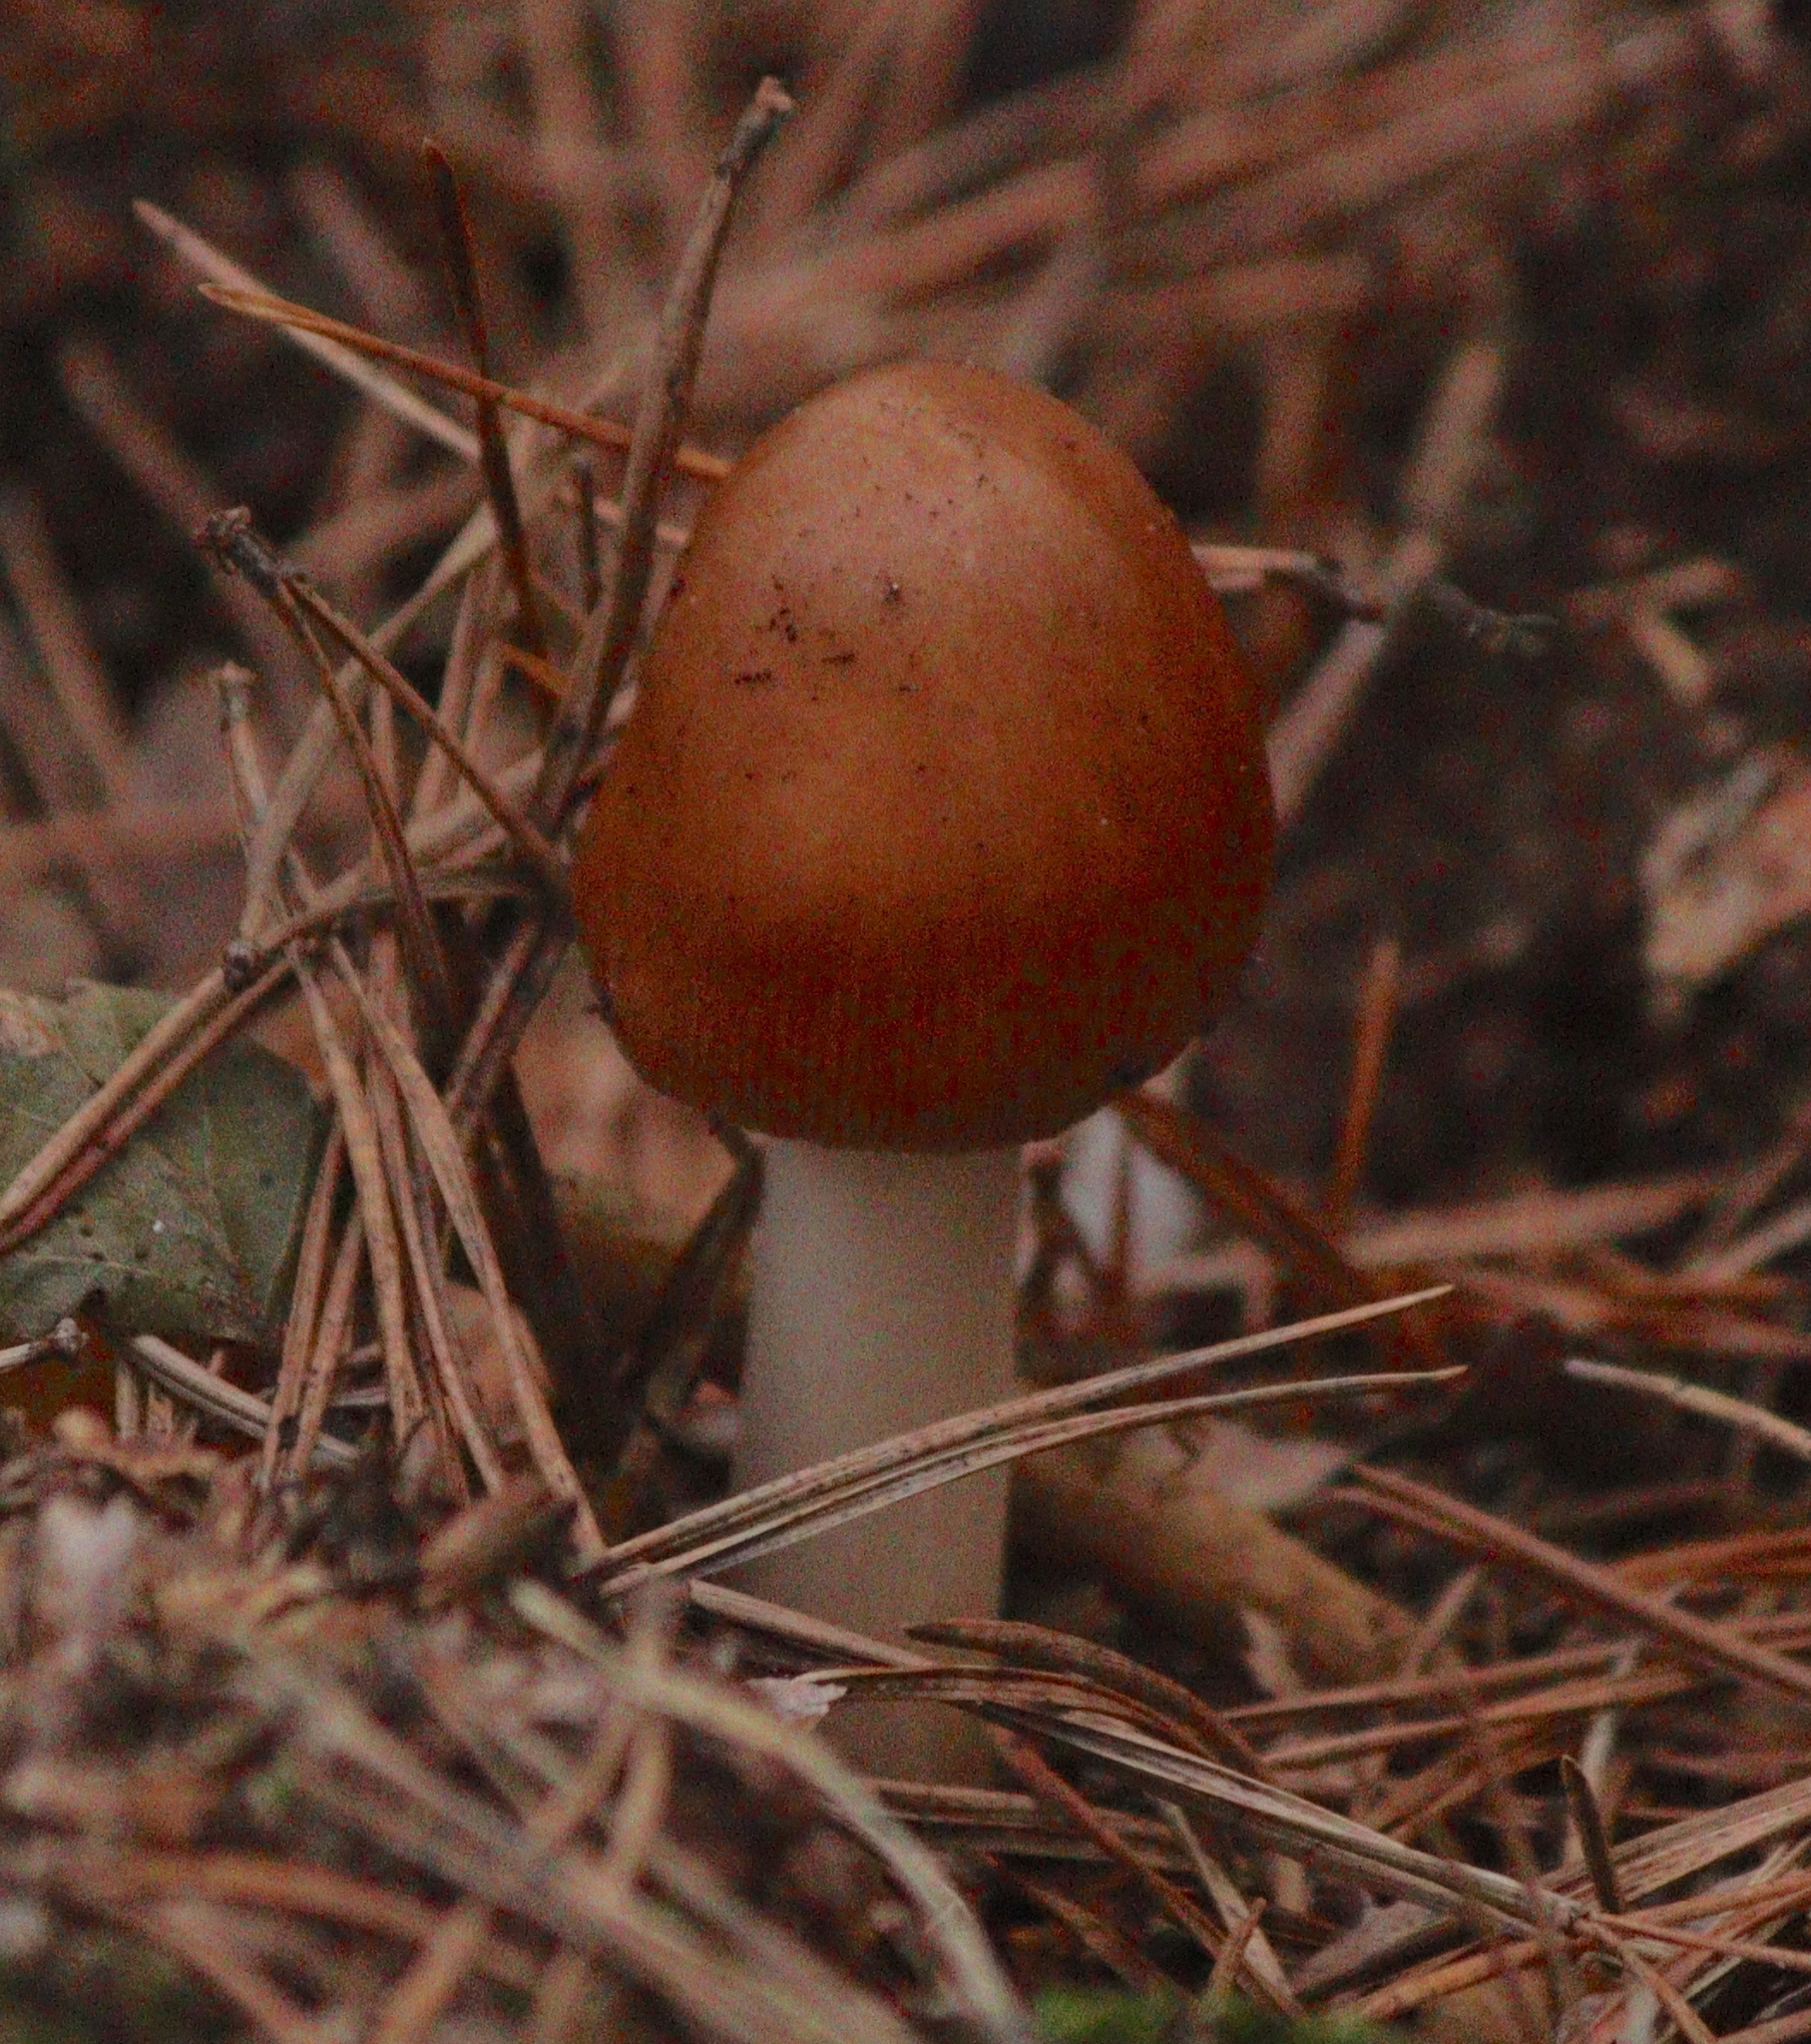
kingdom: Fungi
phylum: Basidiomycota
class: Agaricomycetes
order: Agaricales
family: Amanitaceae
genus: Amanita
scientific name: Amanita fulva
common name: Tawny grisette
